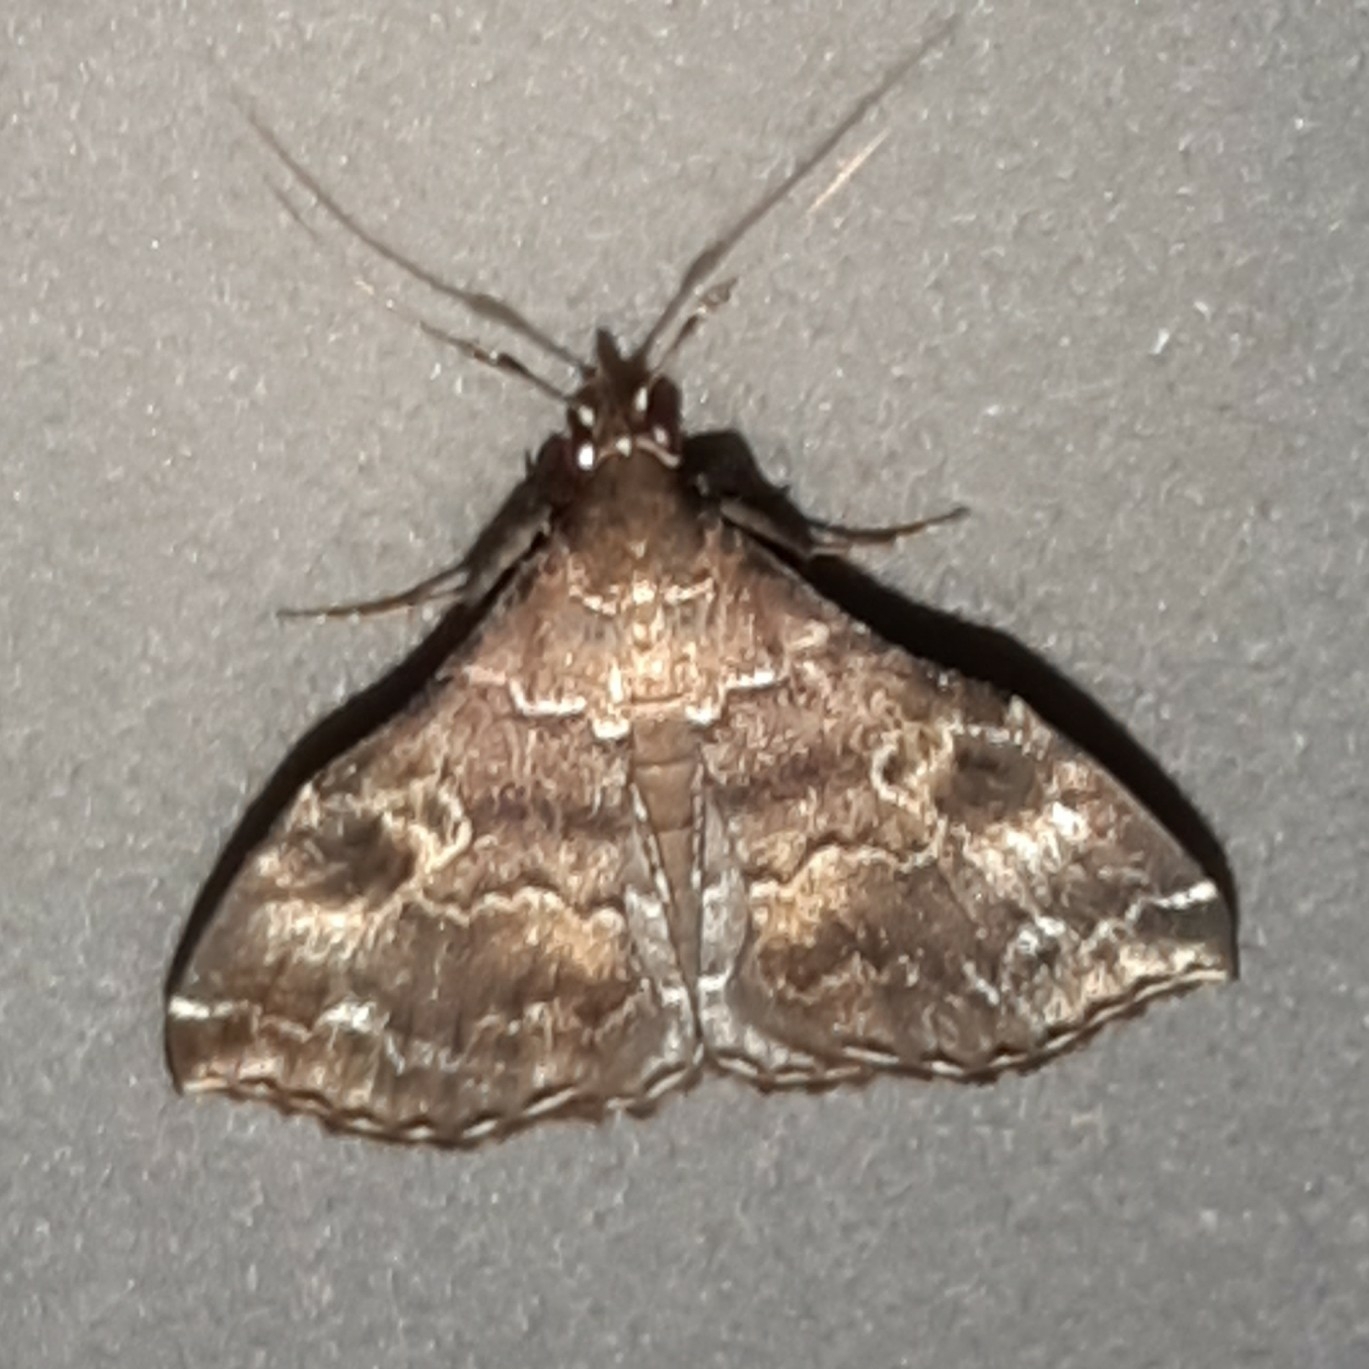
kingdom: Animalia
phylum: Arthropoda
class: Insecta
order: Lepidoptera
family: Erebidae
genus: Phlyctaina
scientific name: Phlyctaina irrigualis
